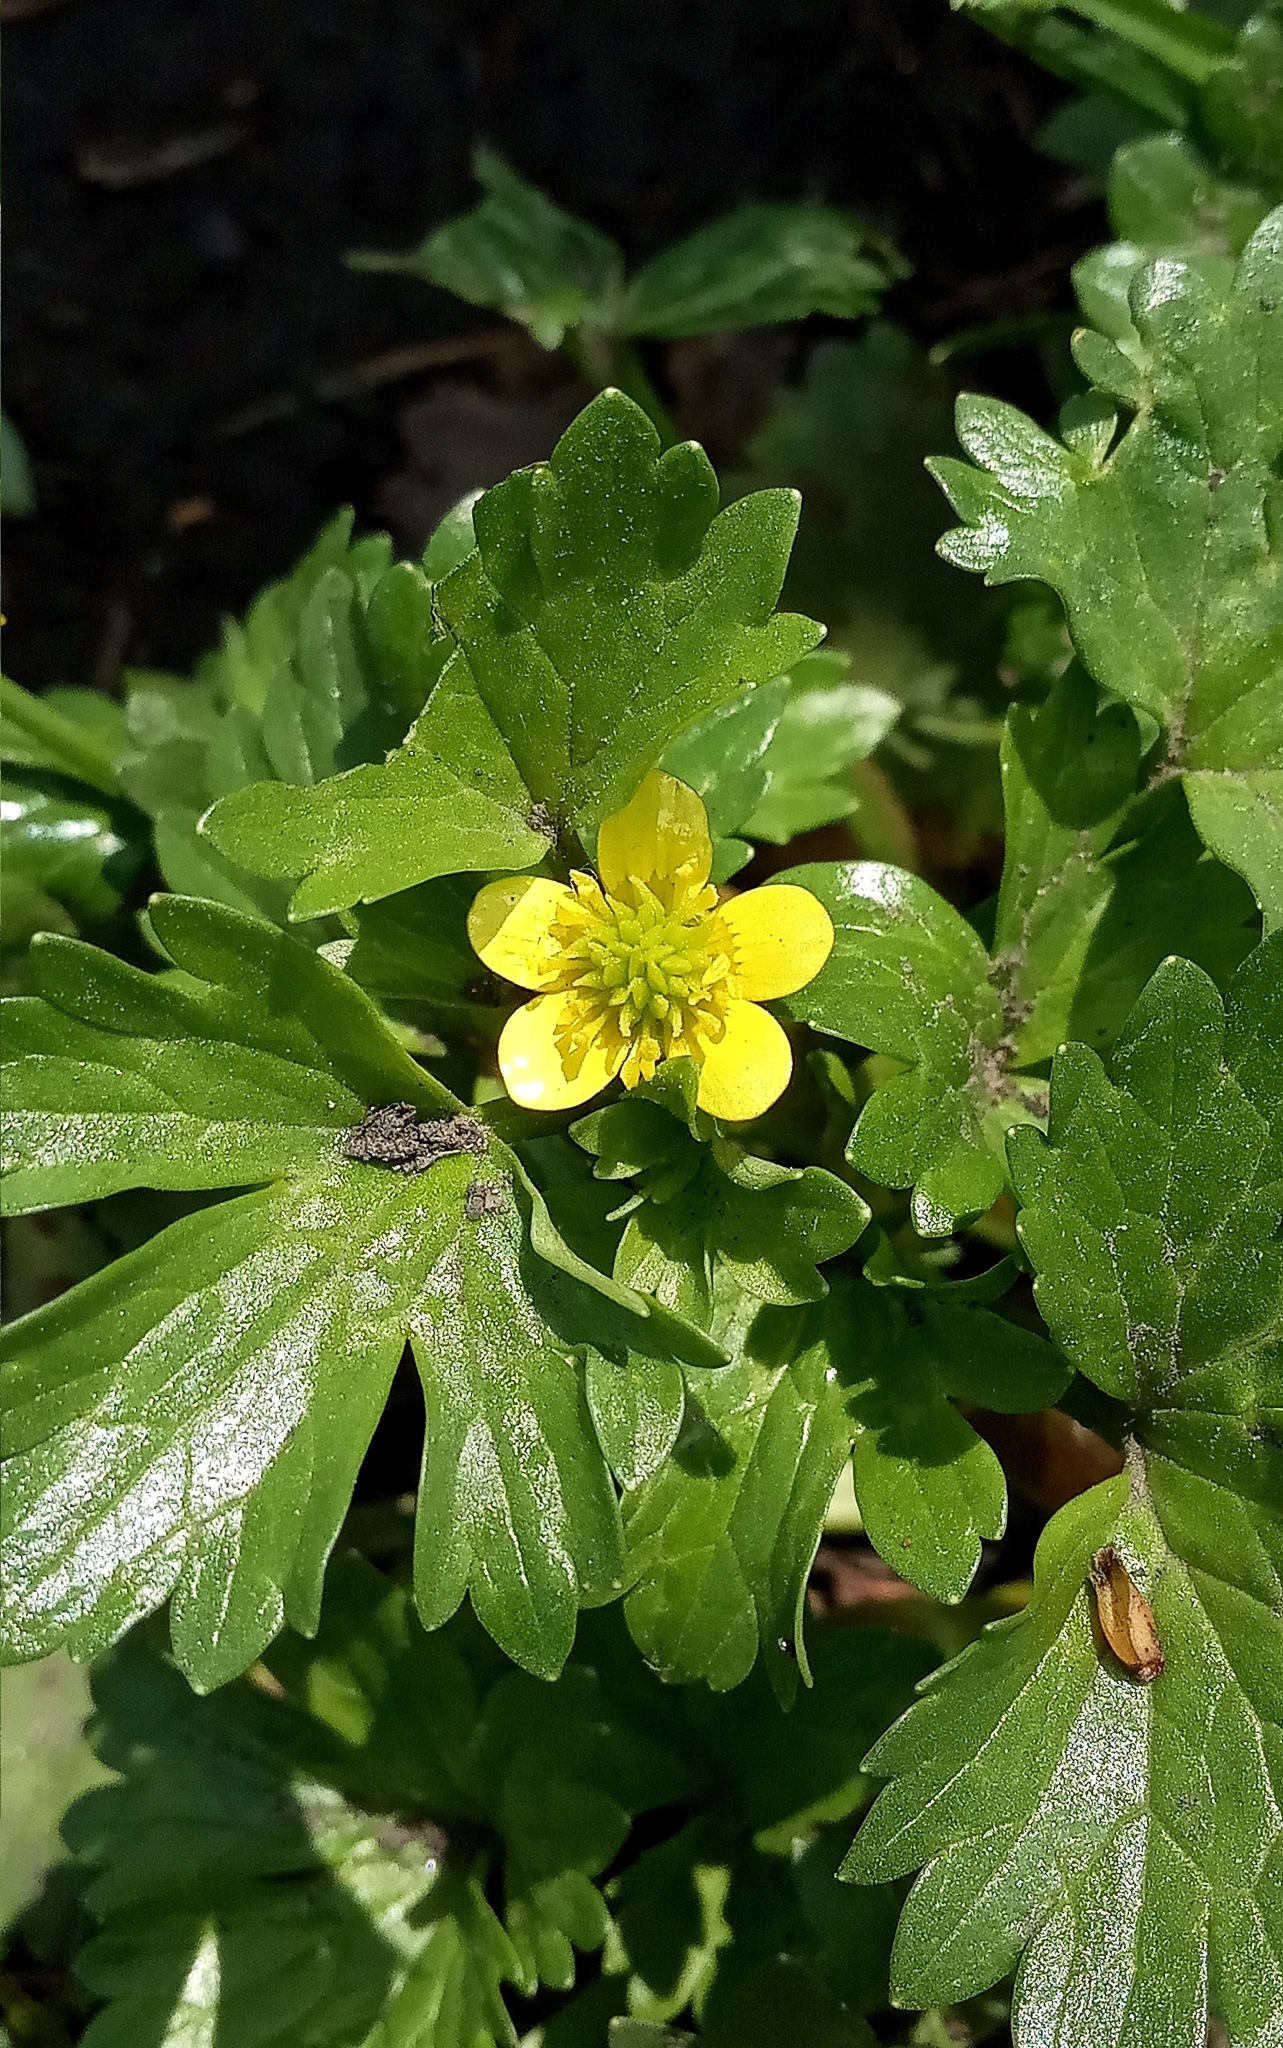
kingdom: Plantae
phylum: Tracheophyta
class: Magnoliopsida
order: Ranunculales
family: Ranunculaceae
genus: Ranunculus
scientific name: Ranunculus muricatus
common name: Rough-fruited buttercup
